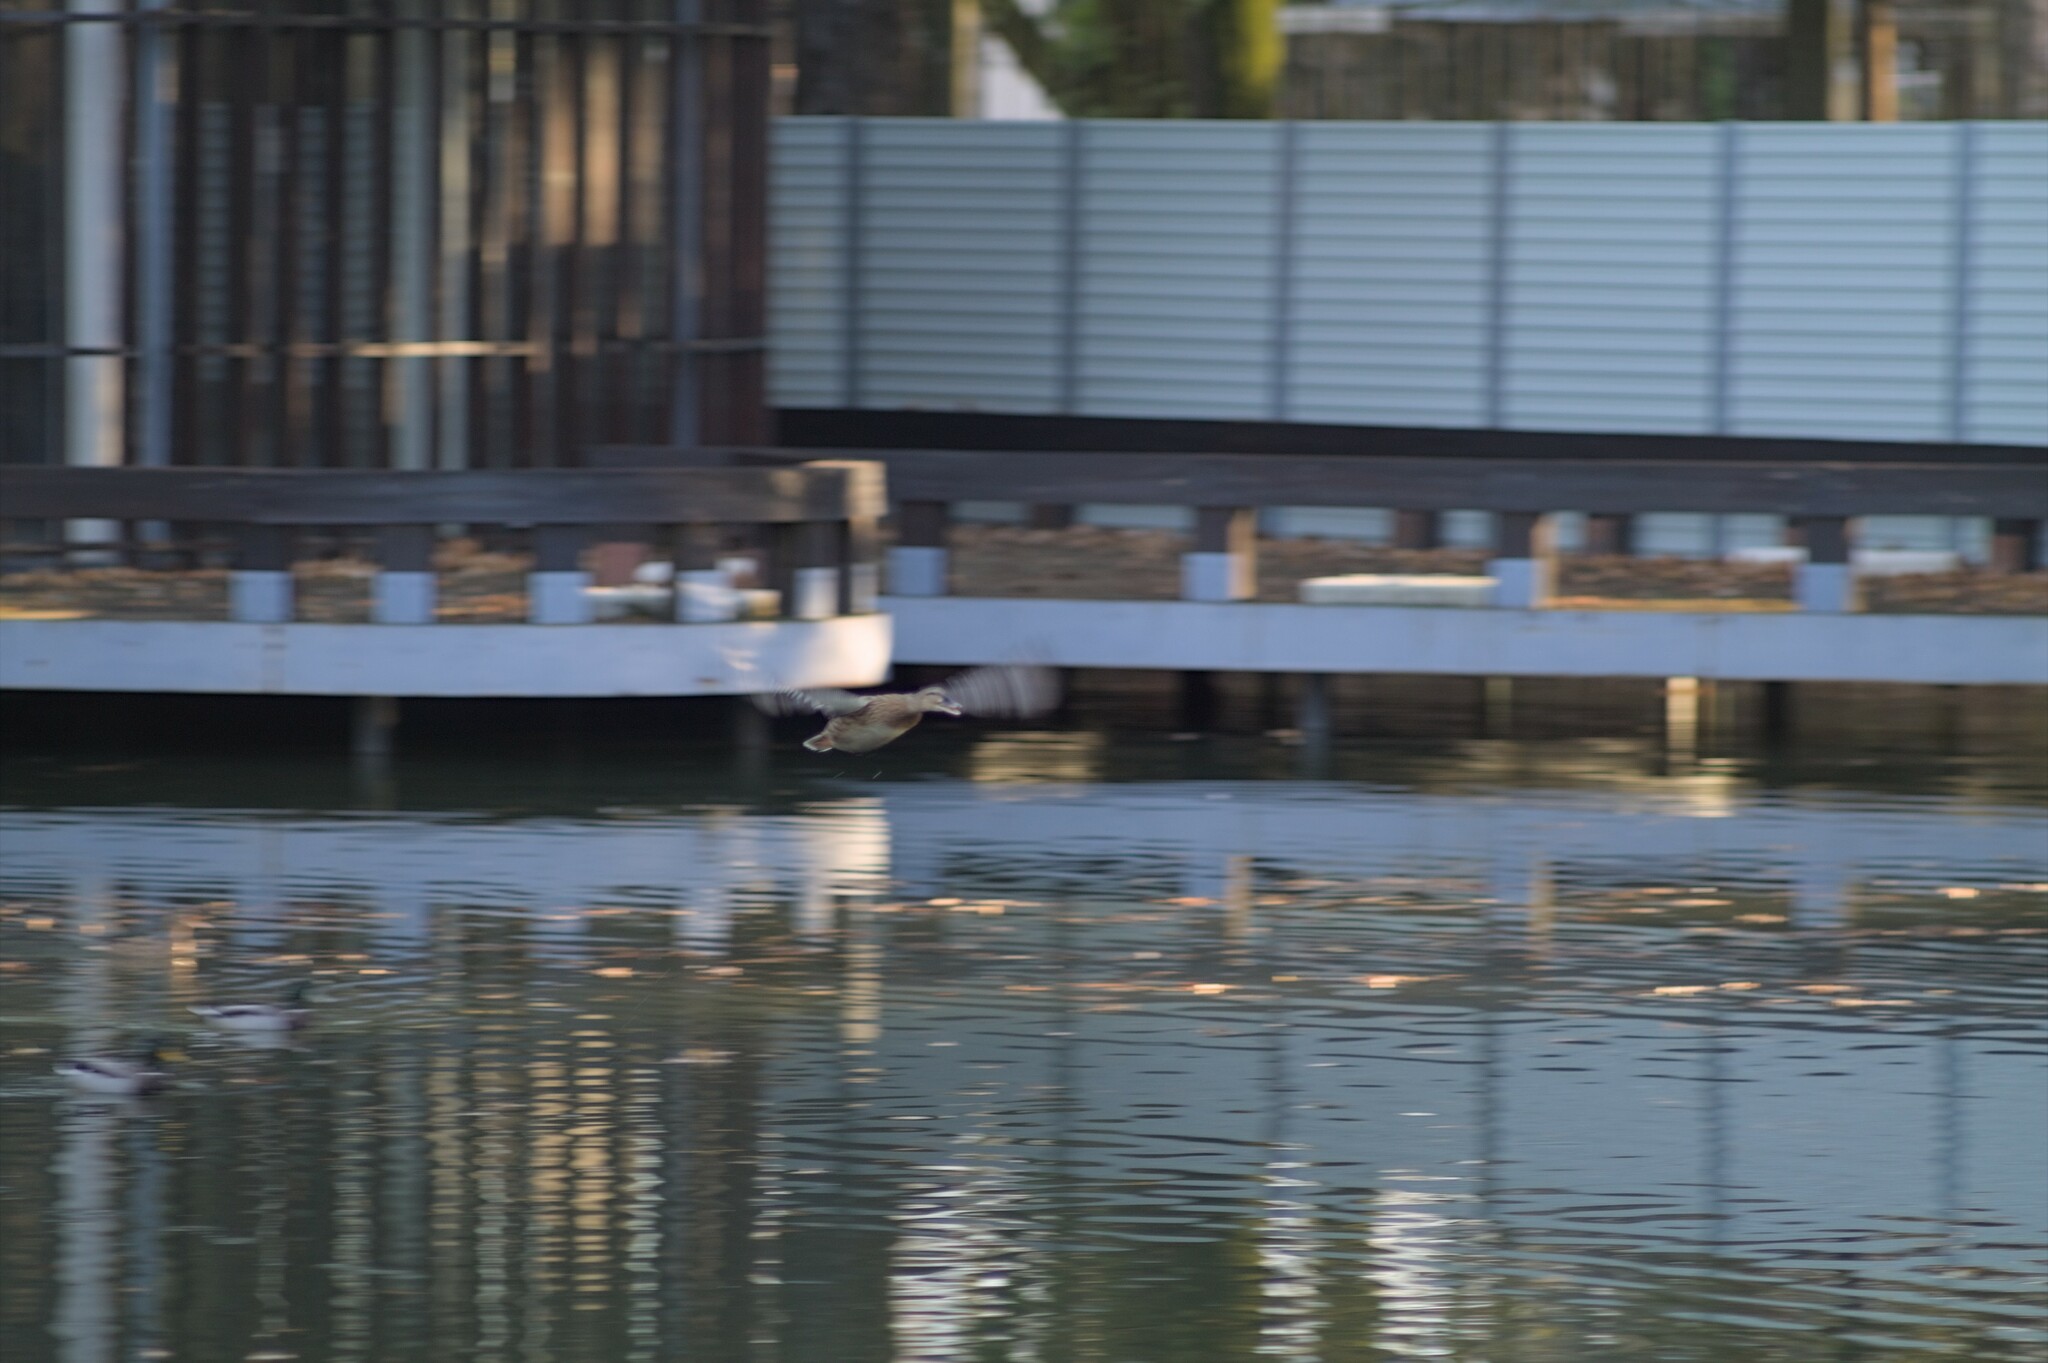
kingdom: Animalia
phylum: Chordata
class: Aves
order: Anseriformes
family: Anatidae
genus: Anas
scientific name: Anas platyrhynchos
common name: Mallard
